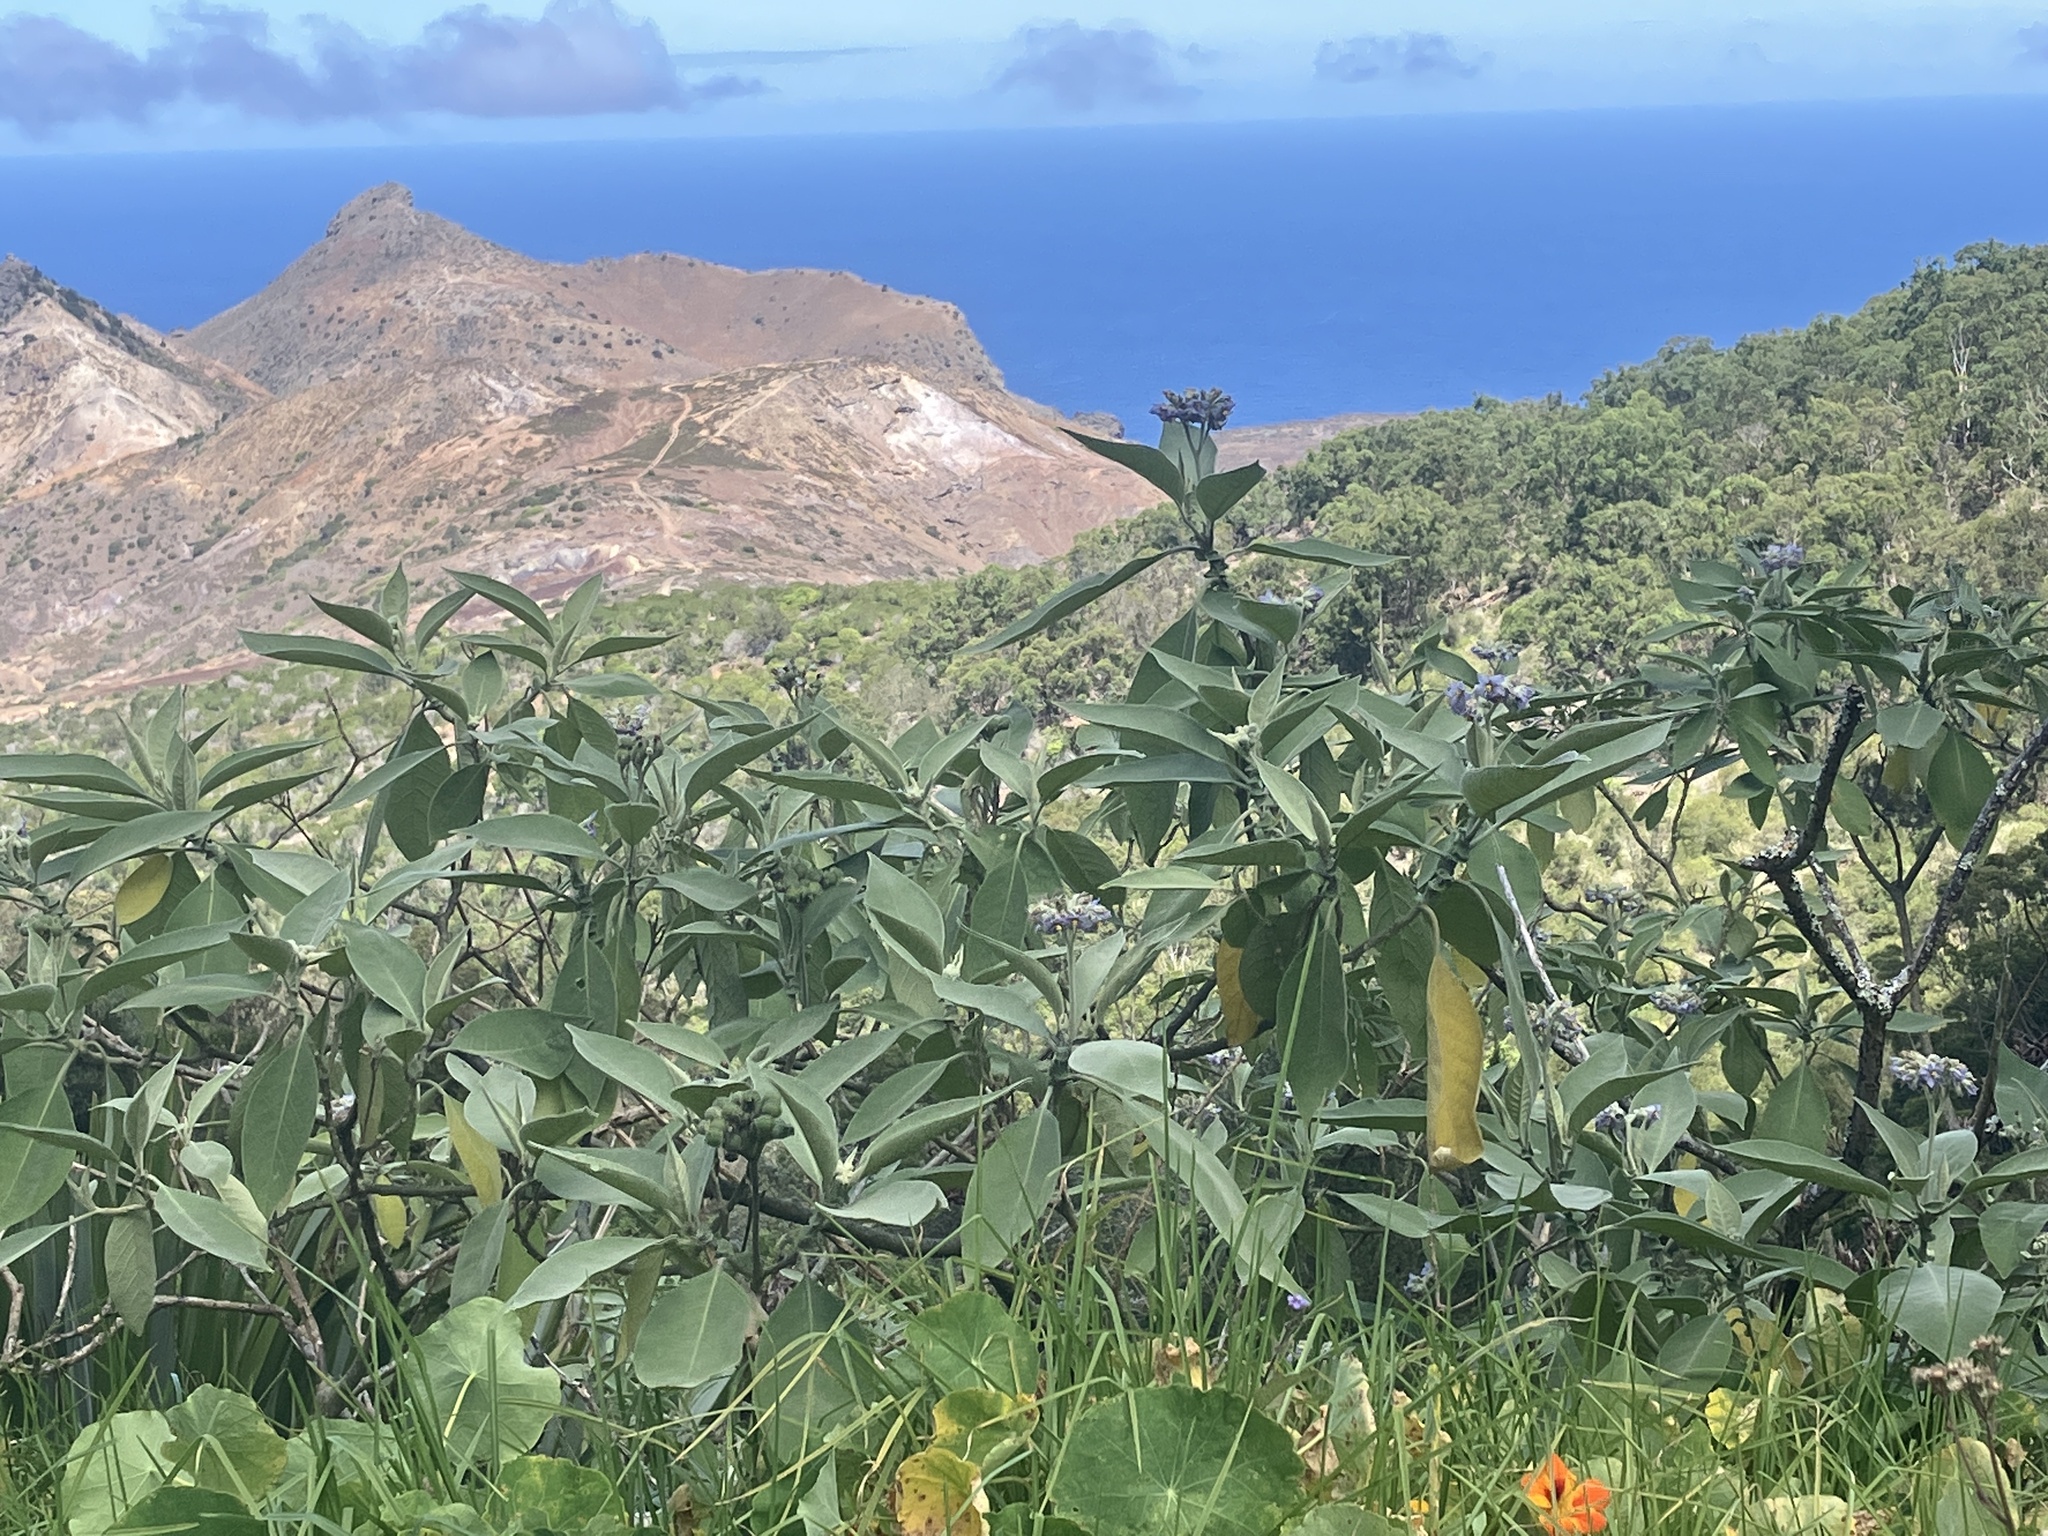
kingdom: Plantae
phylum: Tracheophyta
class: Magnoliopsida
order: Solanales
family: Solanaceae
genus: Solanum
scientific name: Solanum mauritianum
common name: Earleaf nightshade
